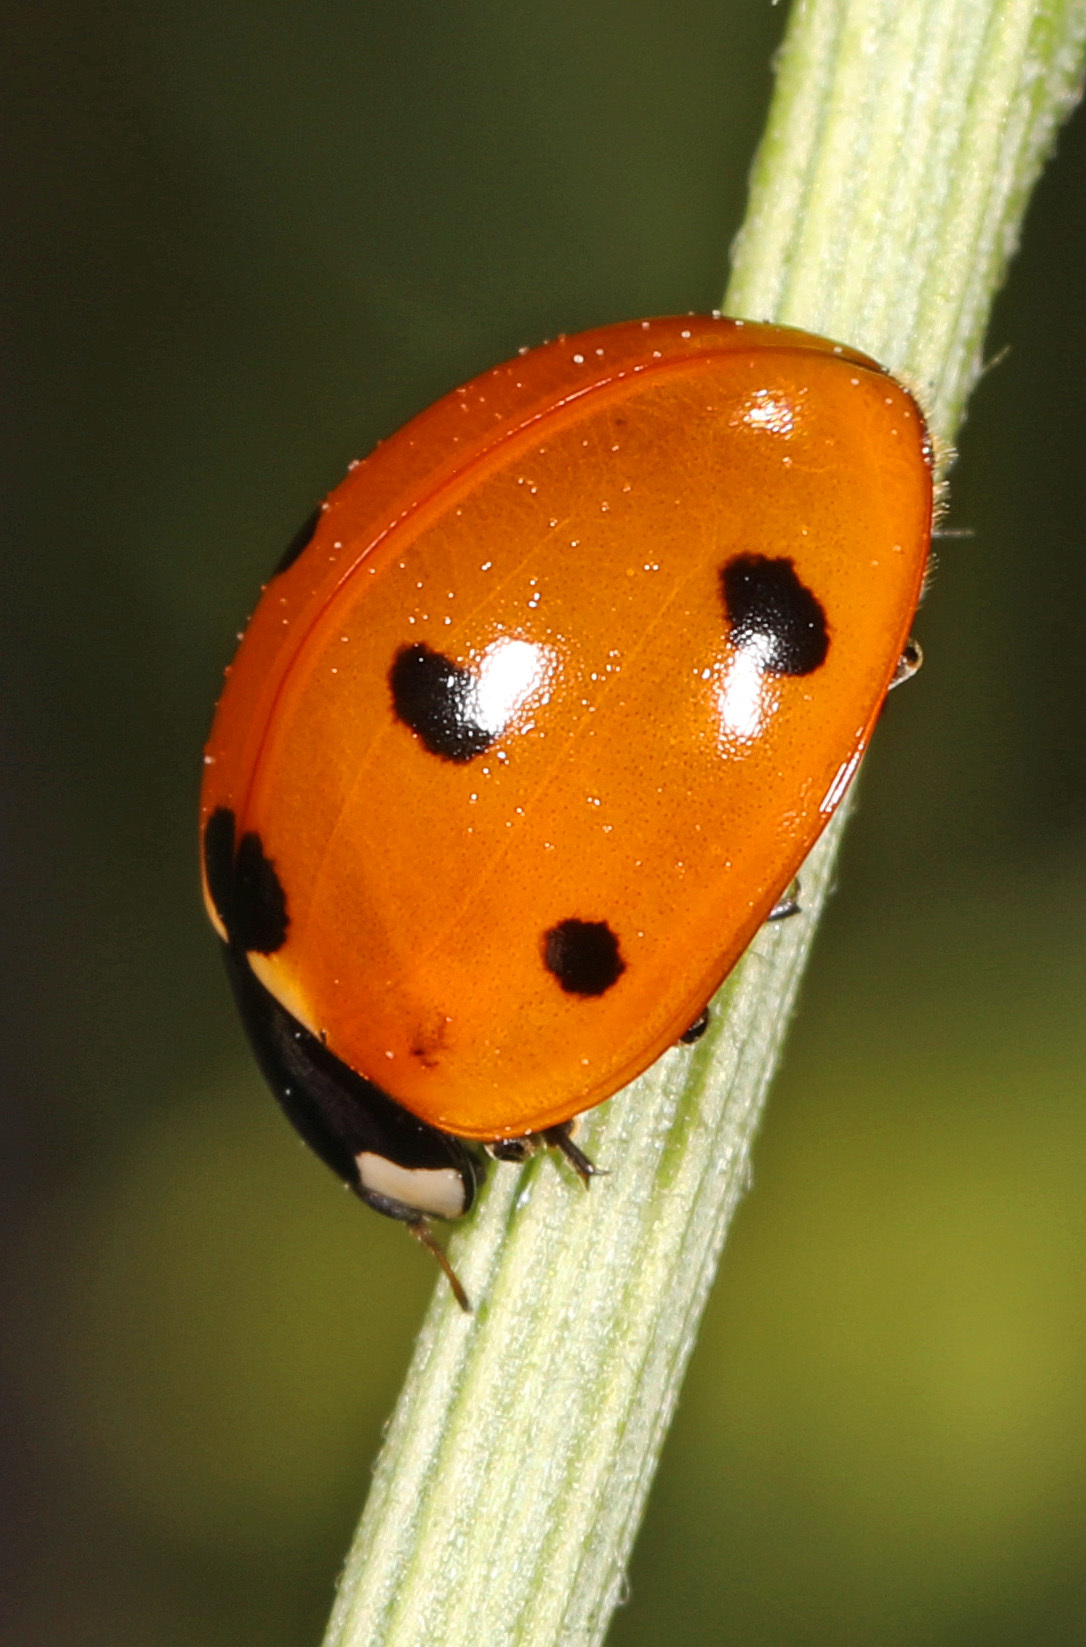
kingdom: Animalia
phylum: Arthropoda
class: Insecta
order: Coleoptera
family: Coccinellidae
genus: Coccinella
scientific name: Coccinella septempunctata
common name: Sevenspotted lady beetle
